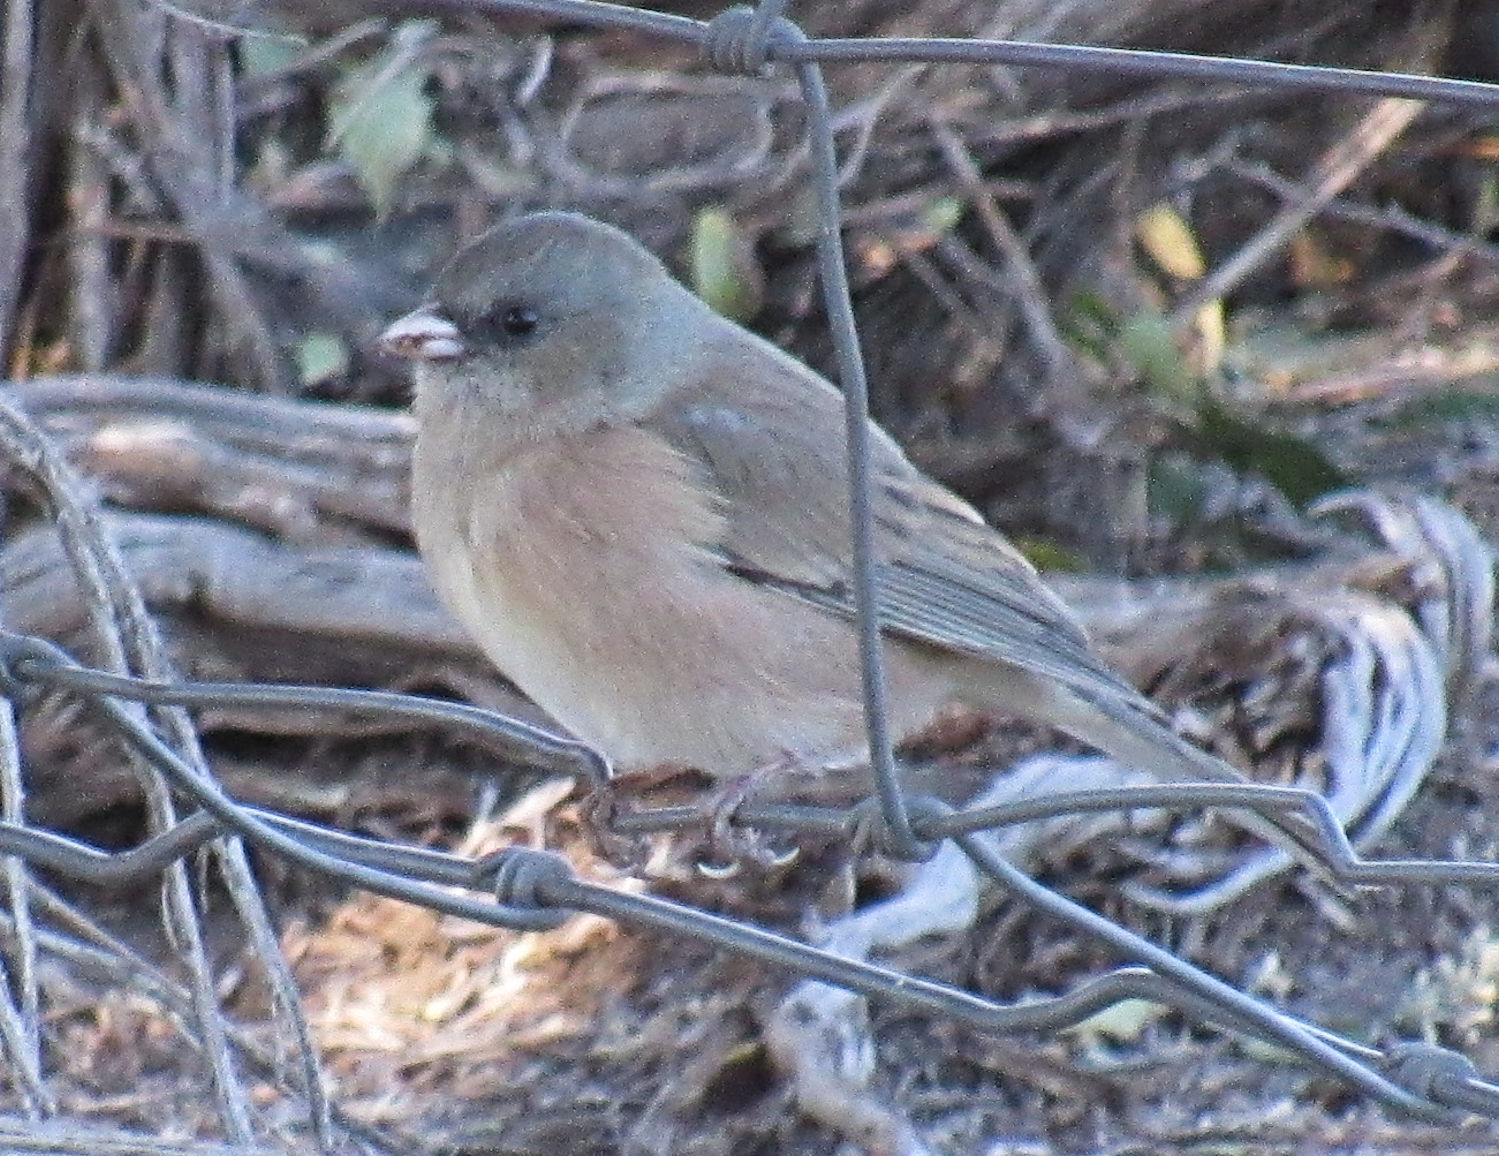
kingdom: Animalia
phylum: Chordata
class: Aves
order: Passeriformes
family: Passerellidae
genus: Junco
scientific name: Junco hyemalis
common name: Dark-eyed junco
